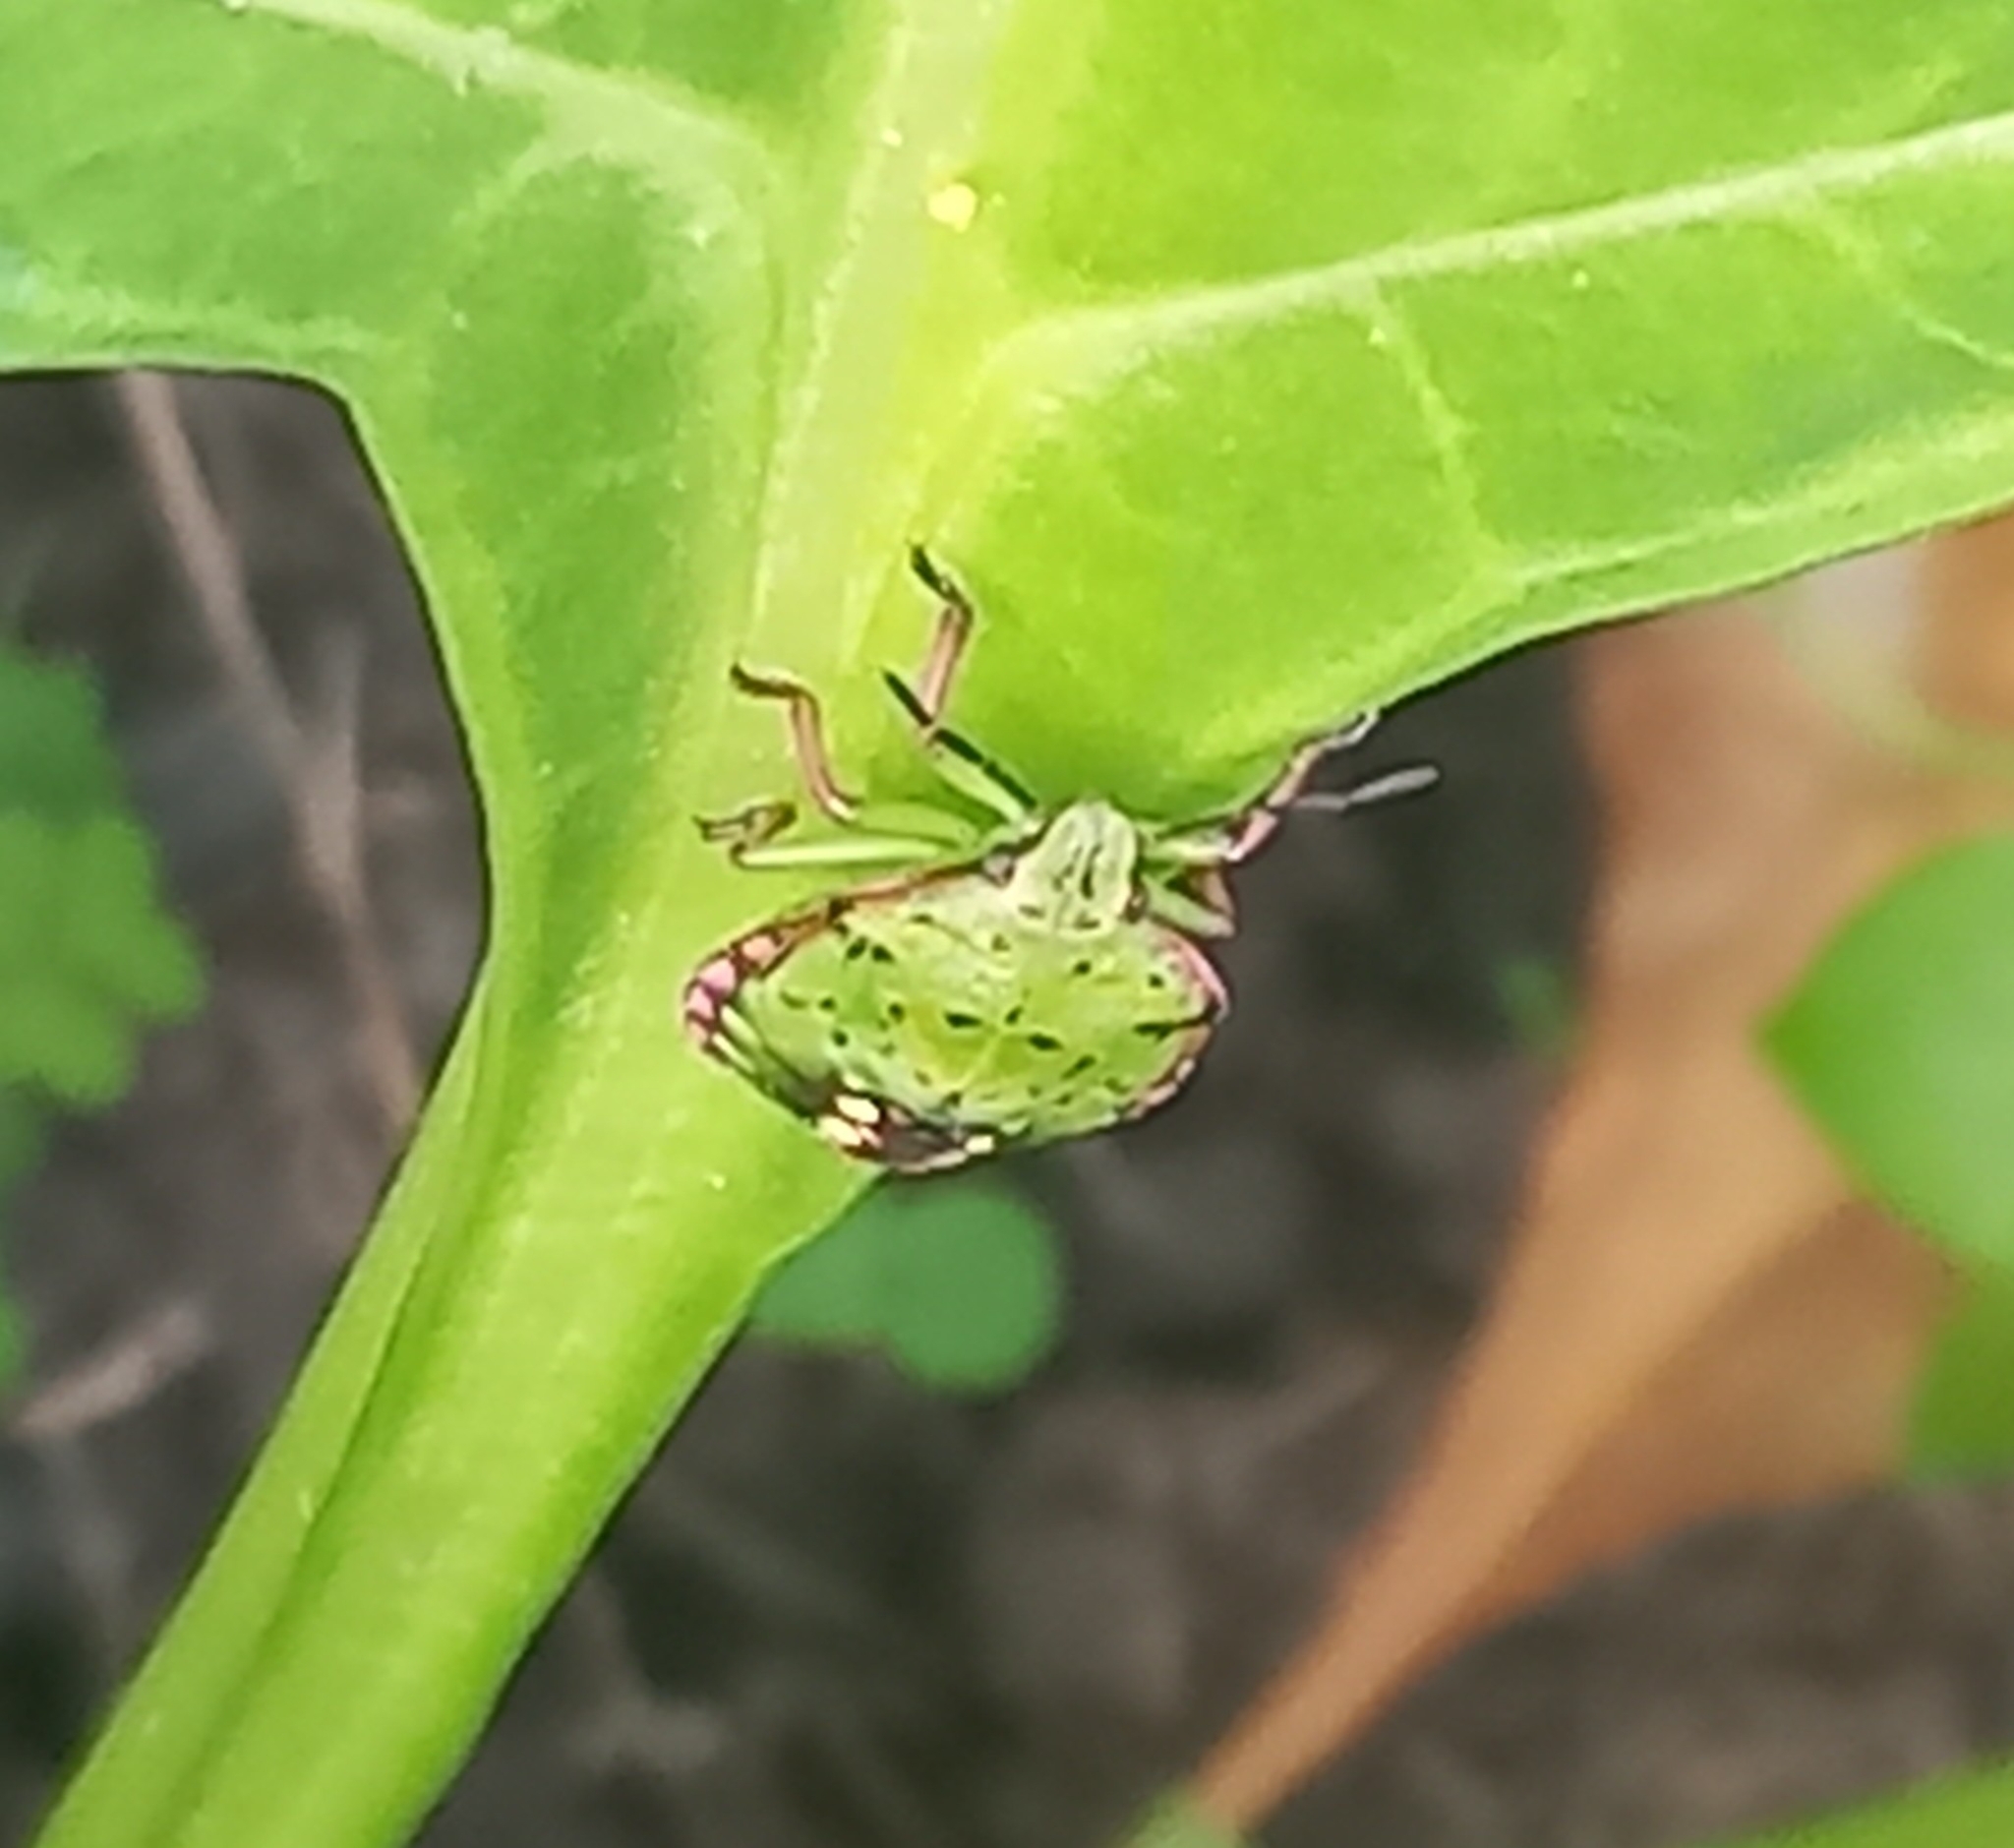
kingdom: Animalia
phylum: Arthropoda
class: Insecta
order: Hemiptera
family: Pentatomidae
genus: Nezara
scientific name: Nezara viridula
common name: Southern green stink bug
